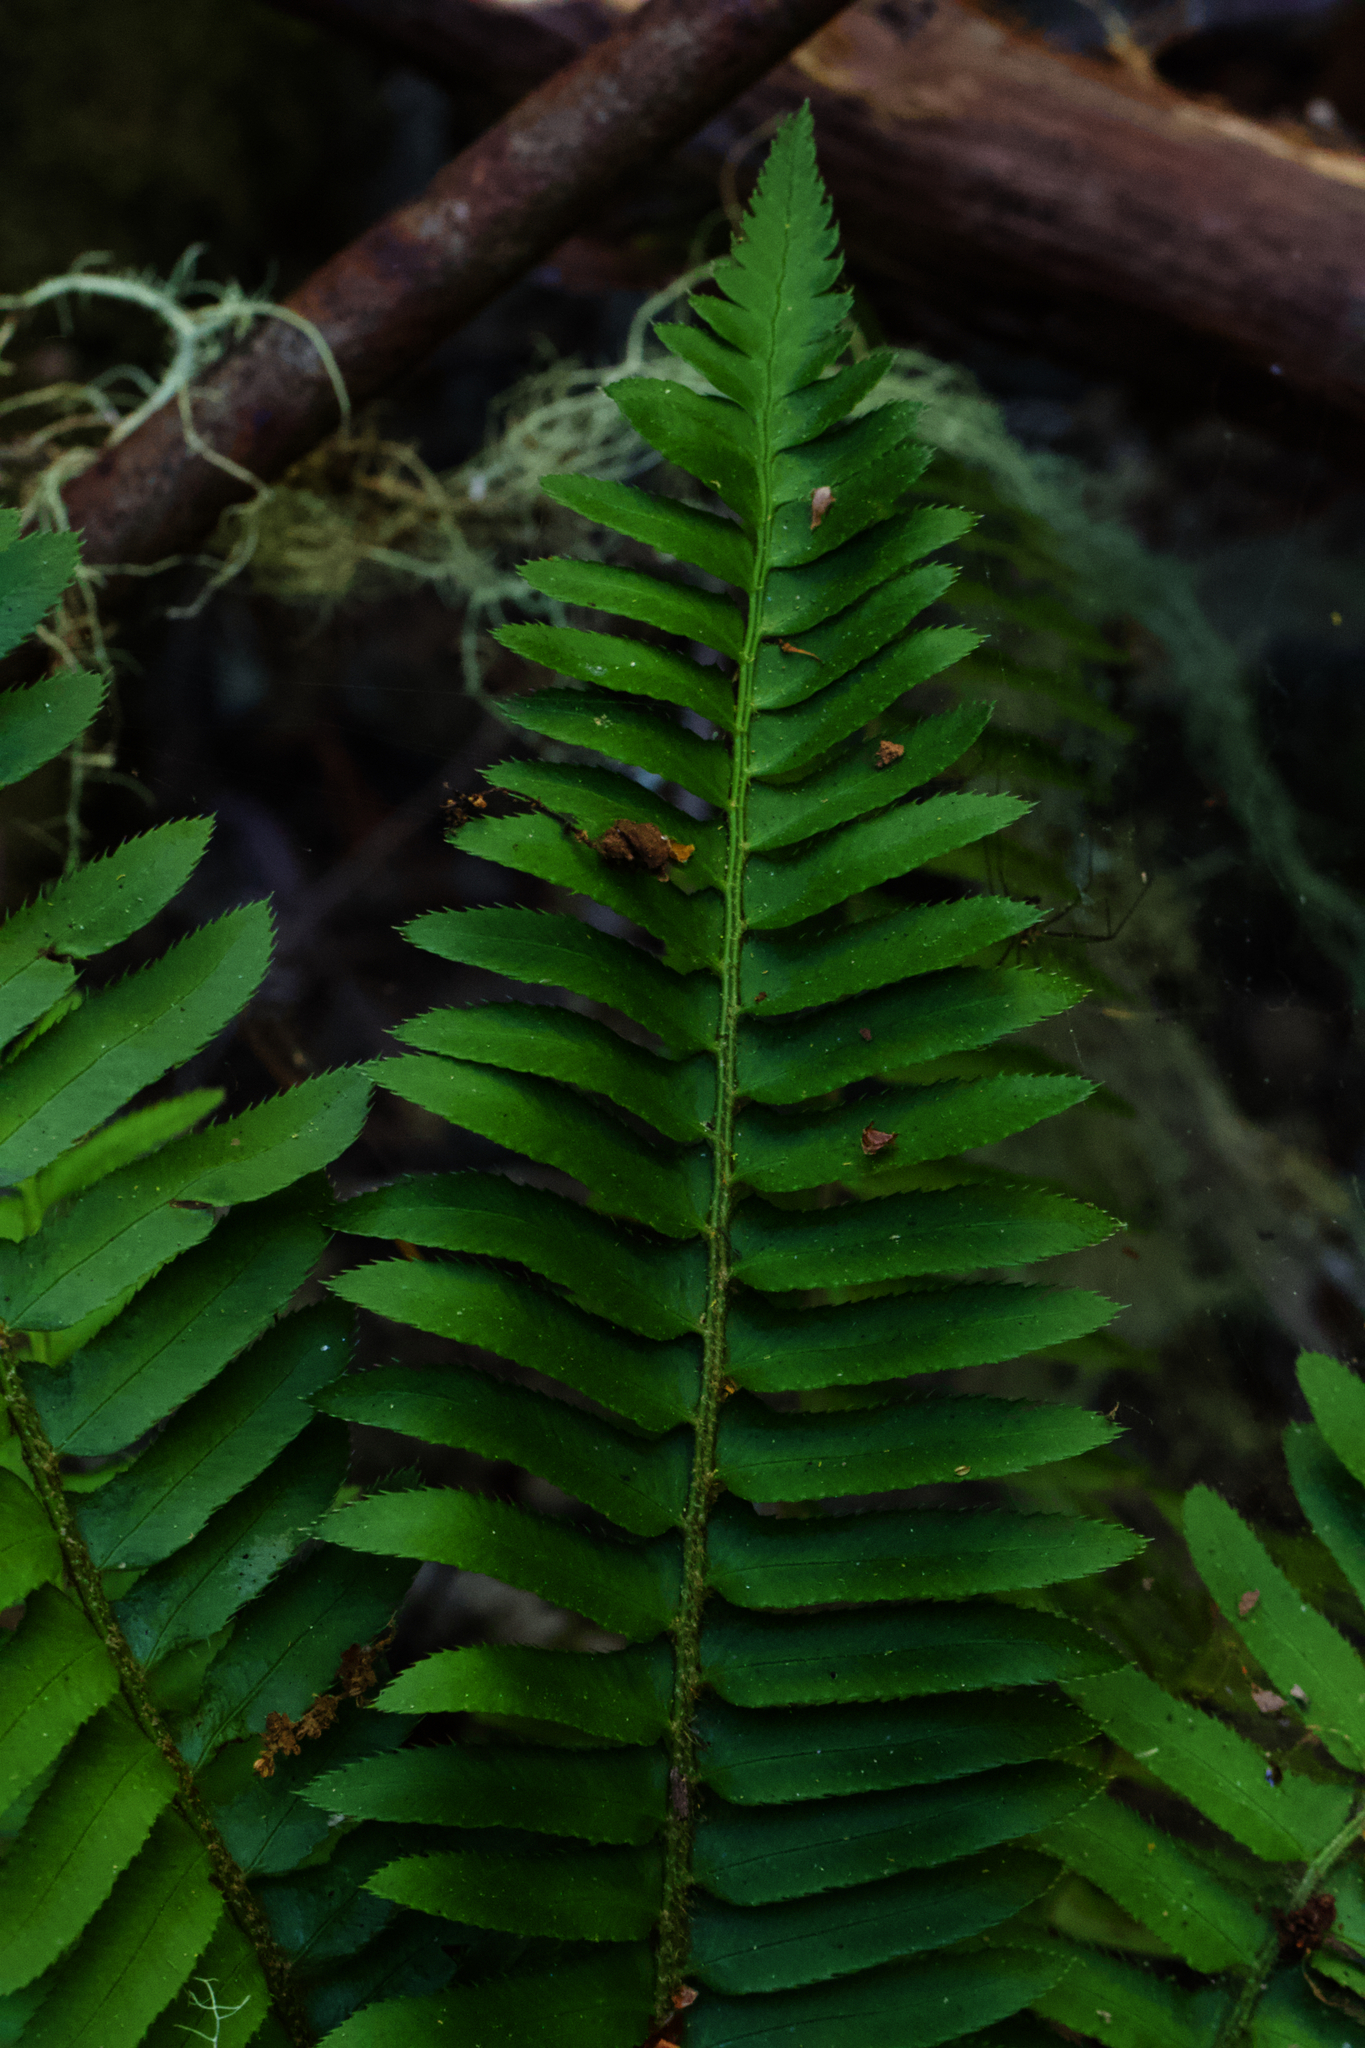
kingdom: Plantae
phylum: Tracheophyta
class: Polypodiopsida
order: Polypodiales
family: Dryopteridaceae
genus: Polystichum
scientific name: Polystichum munitum
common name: Western sword-fern
